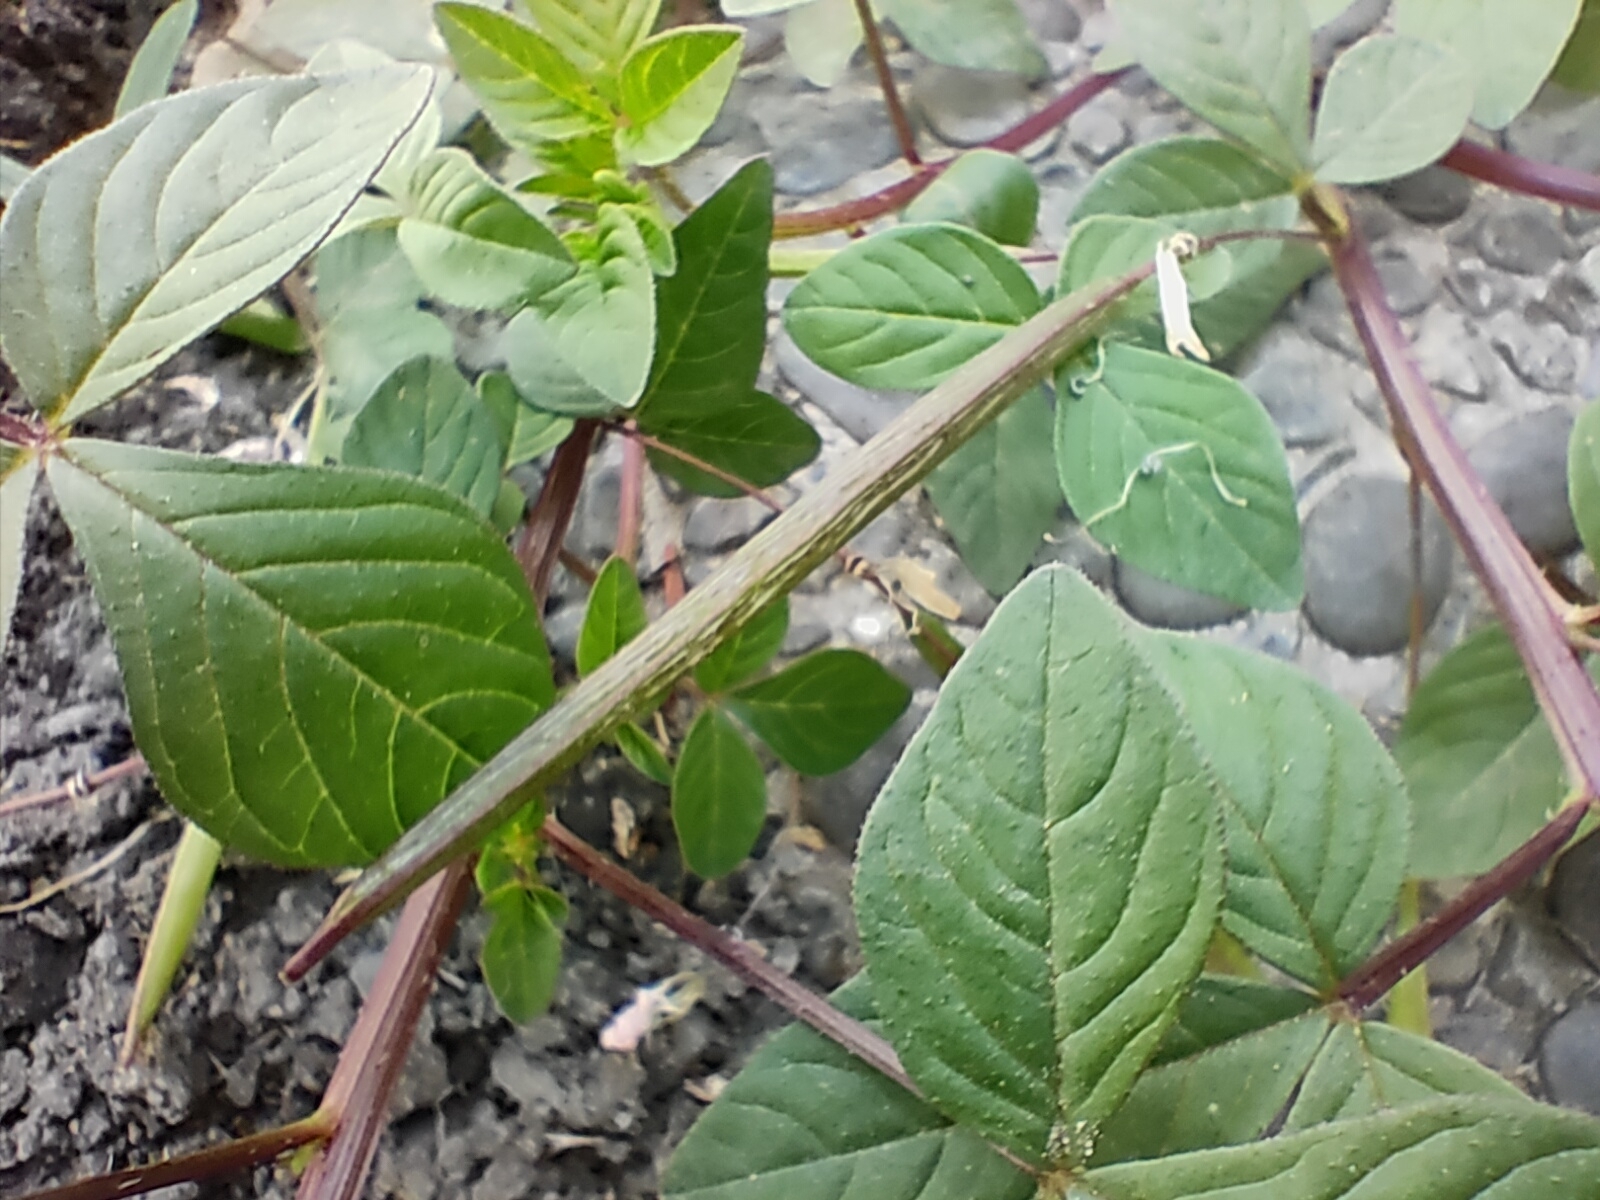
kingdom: Plantae
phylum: Tracheophyta
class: Magnoliopsida
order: Brassicales
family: Cleomaceae
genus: Sieruela
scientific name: Sieruela rutidosperma
